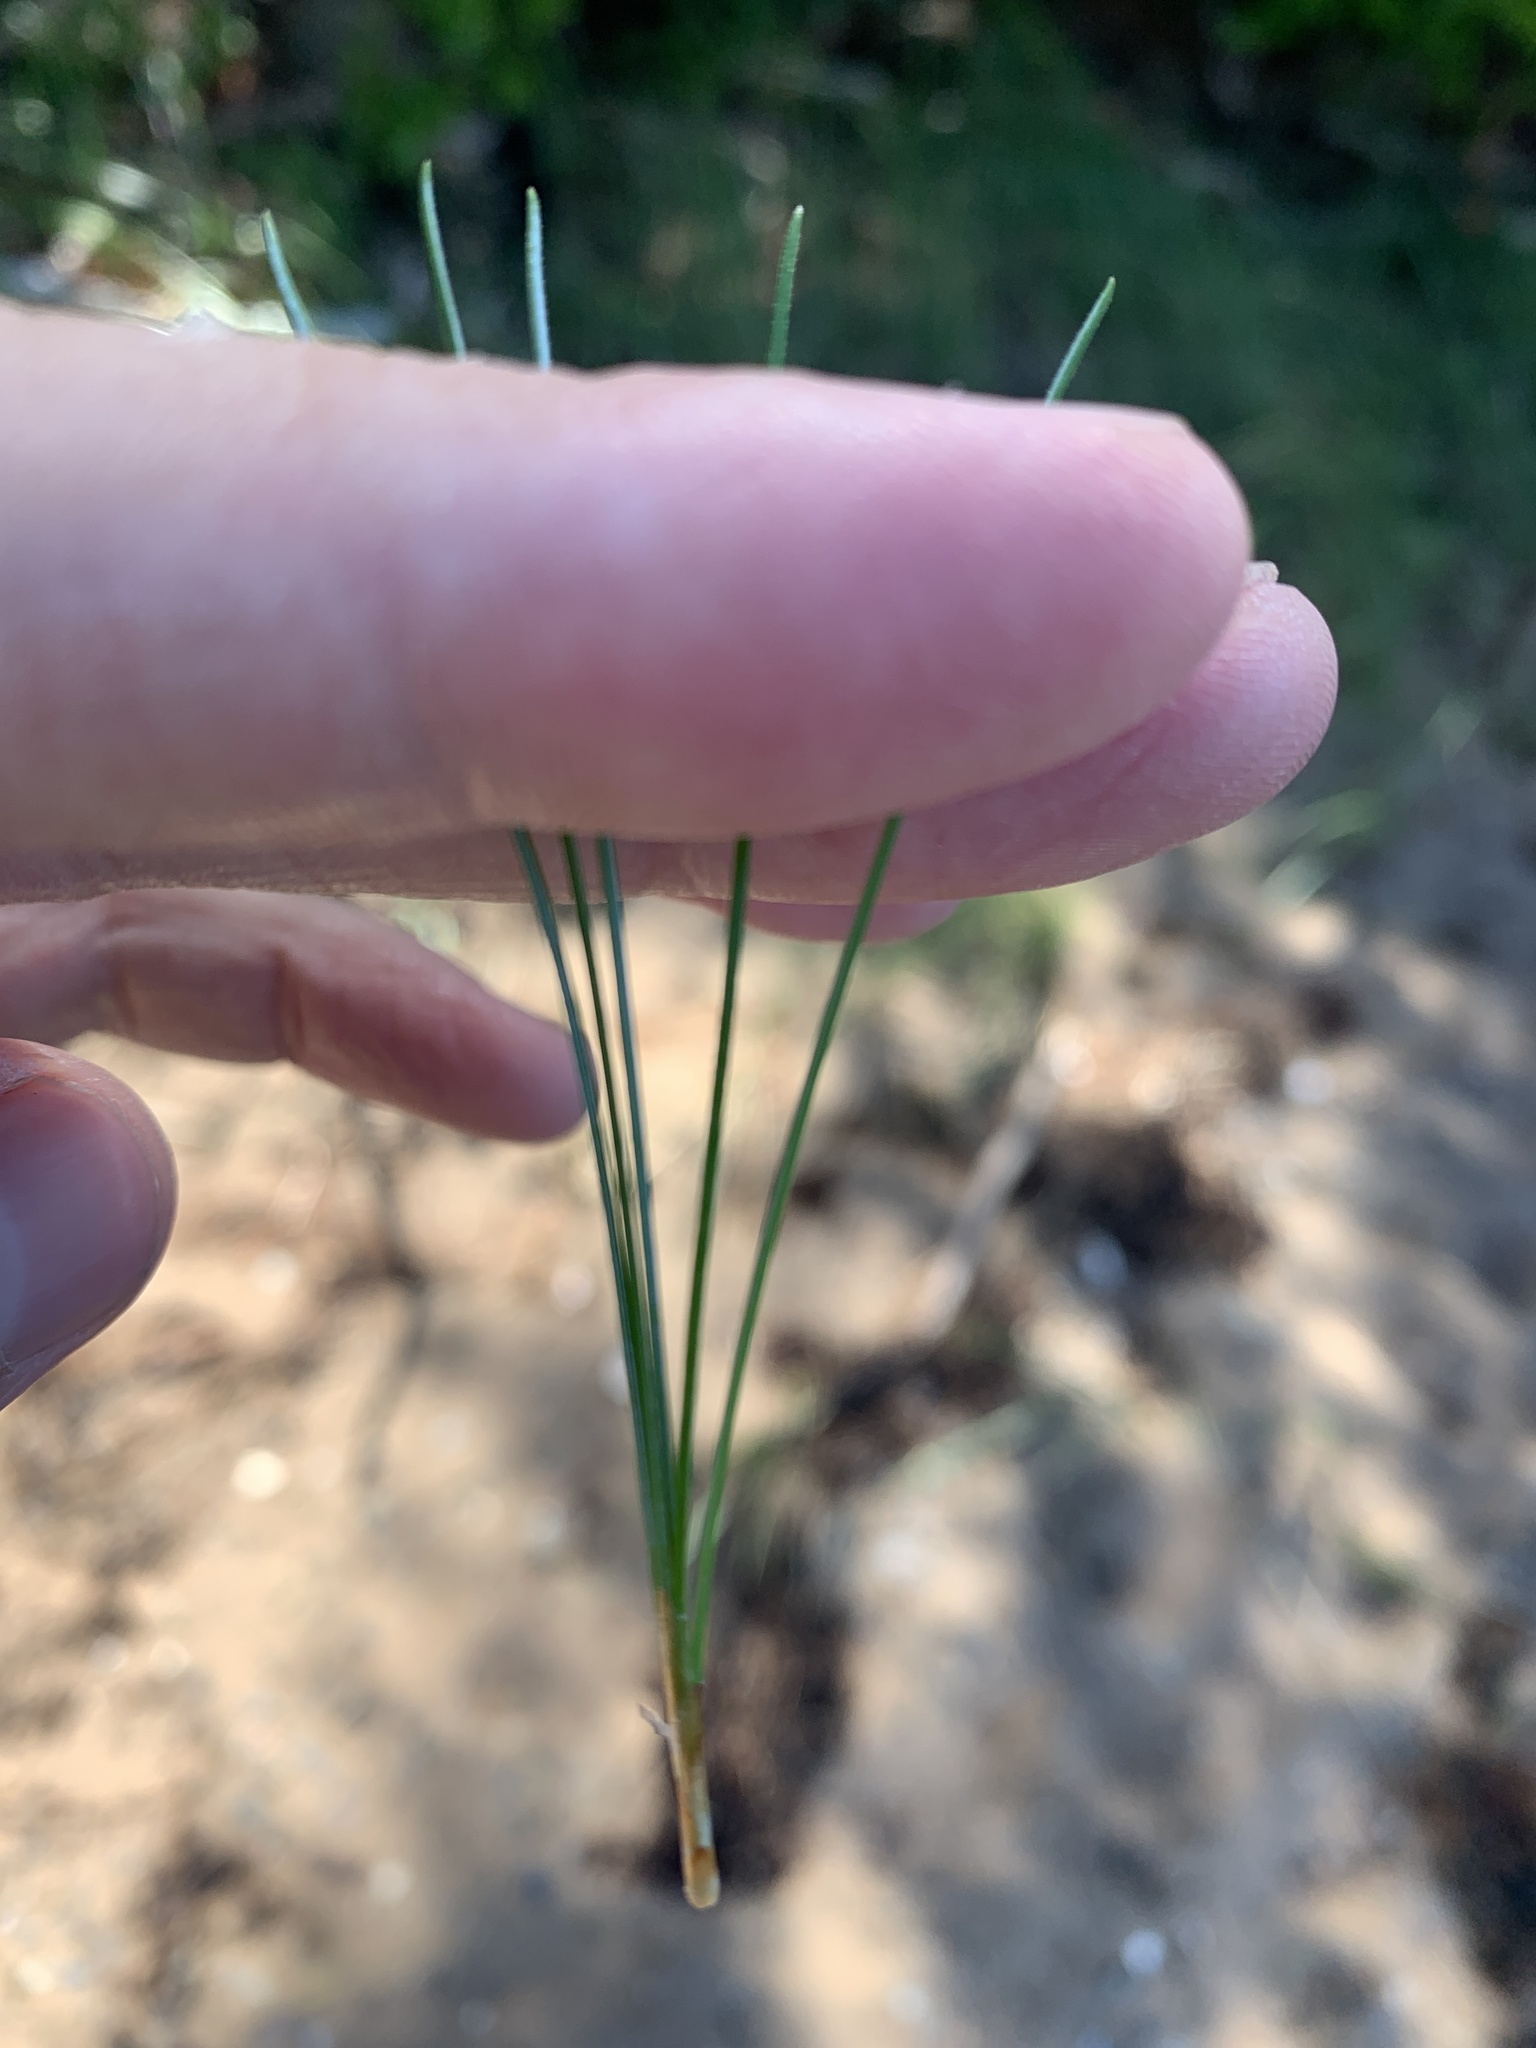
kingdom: Plantae
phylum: Tracheophyta
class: Pinopsida
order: Pinales
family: Pinaceae
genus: Pinus
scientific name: Pinus strobus
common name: Weymouth pine
